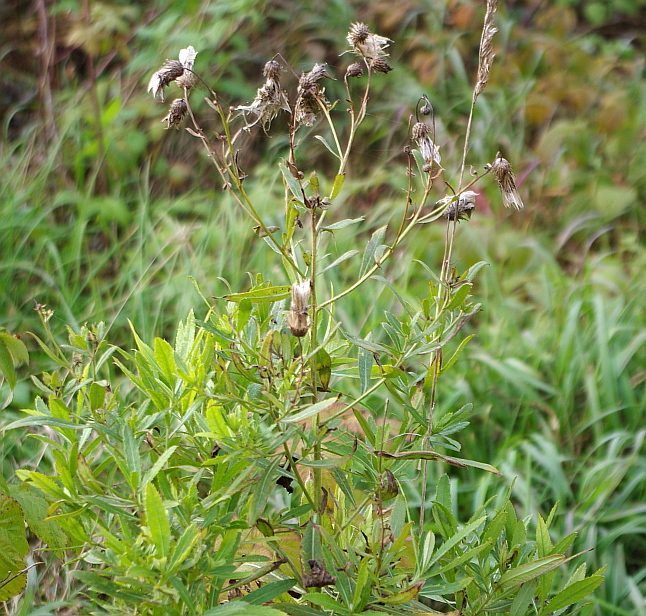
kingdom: Plantae
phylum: Tracheophyta
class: Magnoliopsida
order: Asterales
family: Asteraceae
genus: Cirsium
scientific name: Cirsium arvense
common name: Creeping thistle
